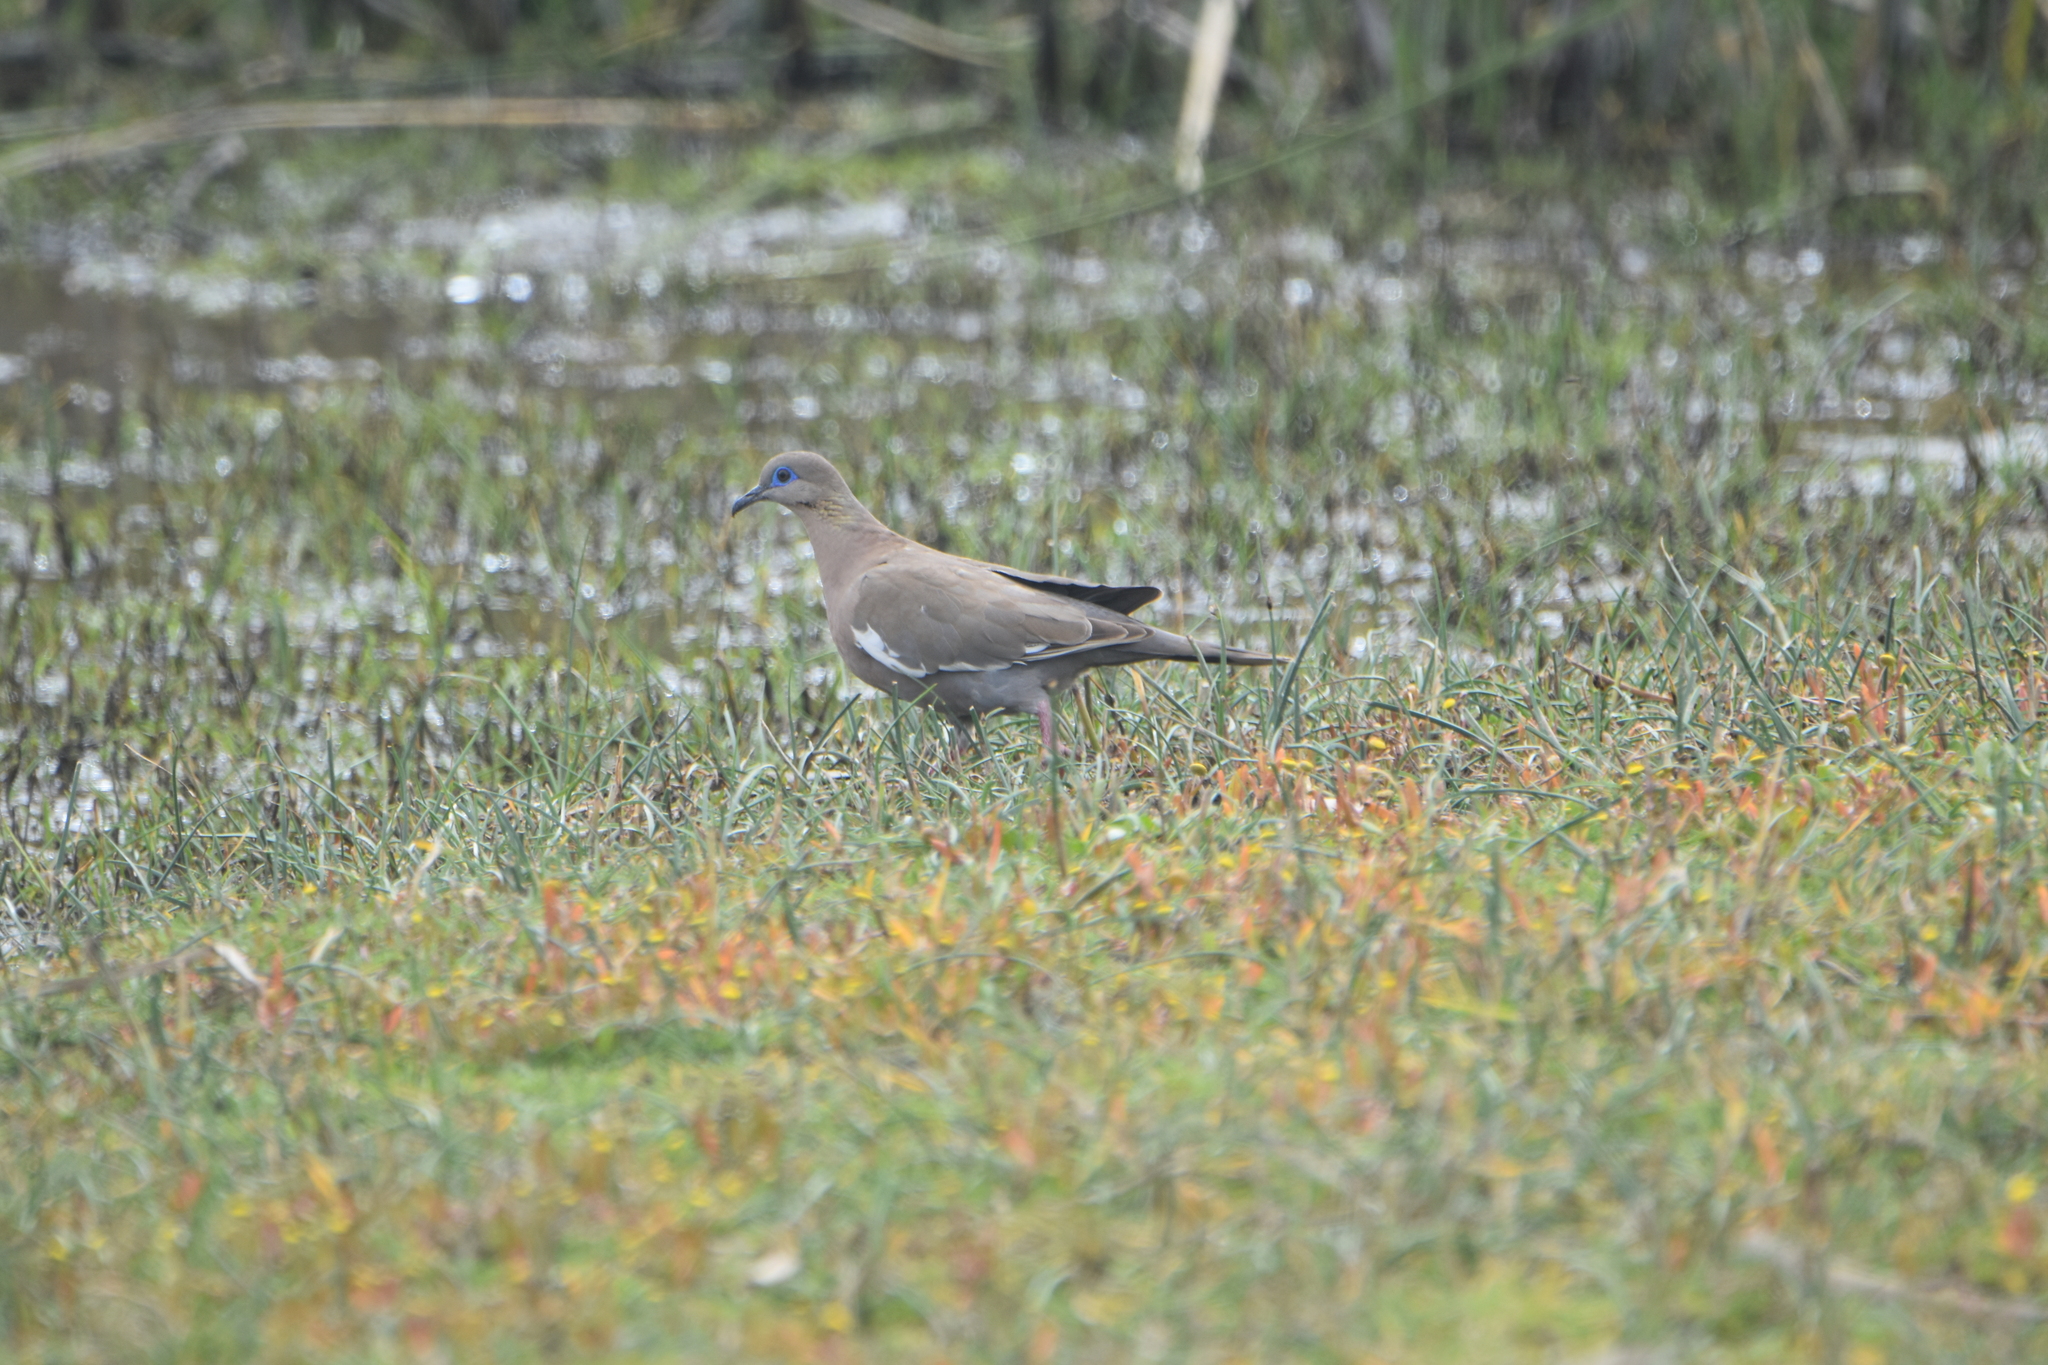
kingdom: Animalia
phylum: Chordata
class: Aves
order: Columbiformes
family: Columbidae
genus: Zenaida
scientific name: Zenaida meloda
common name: West peruvian dove
